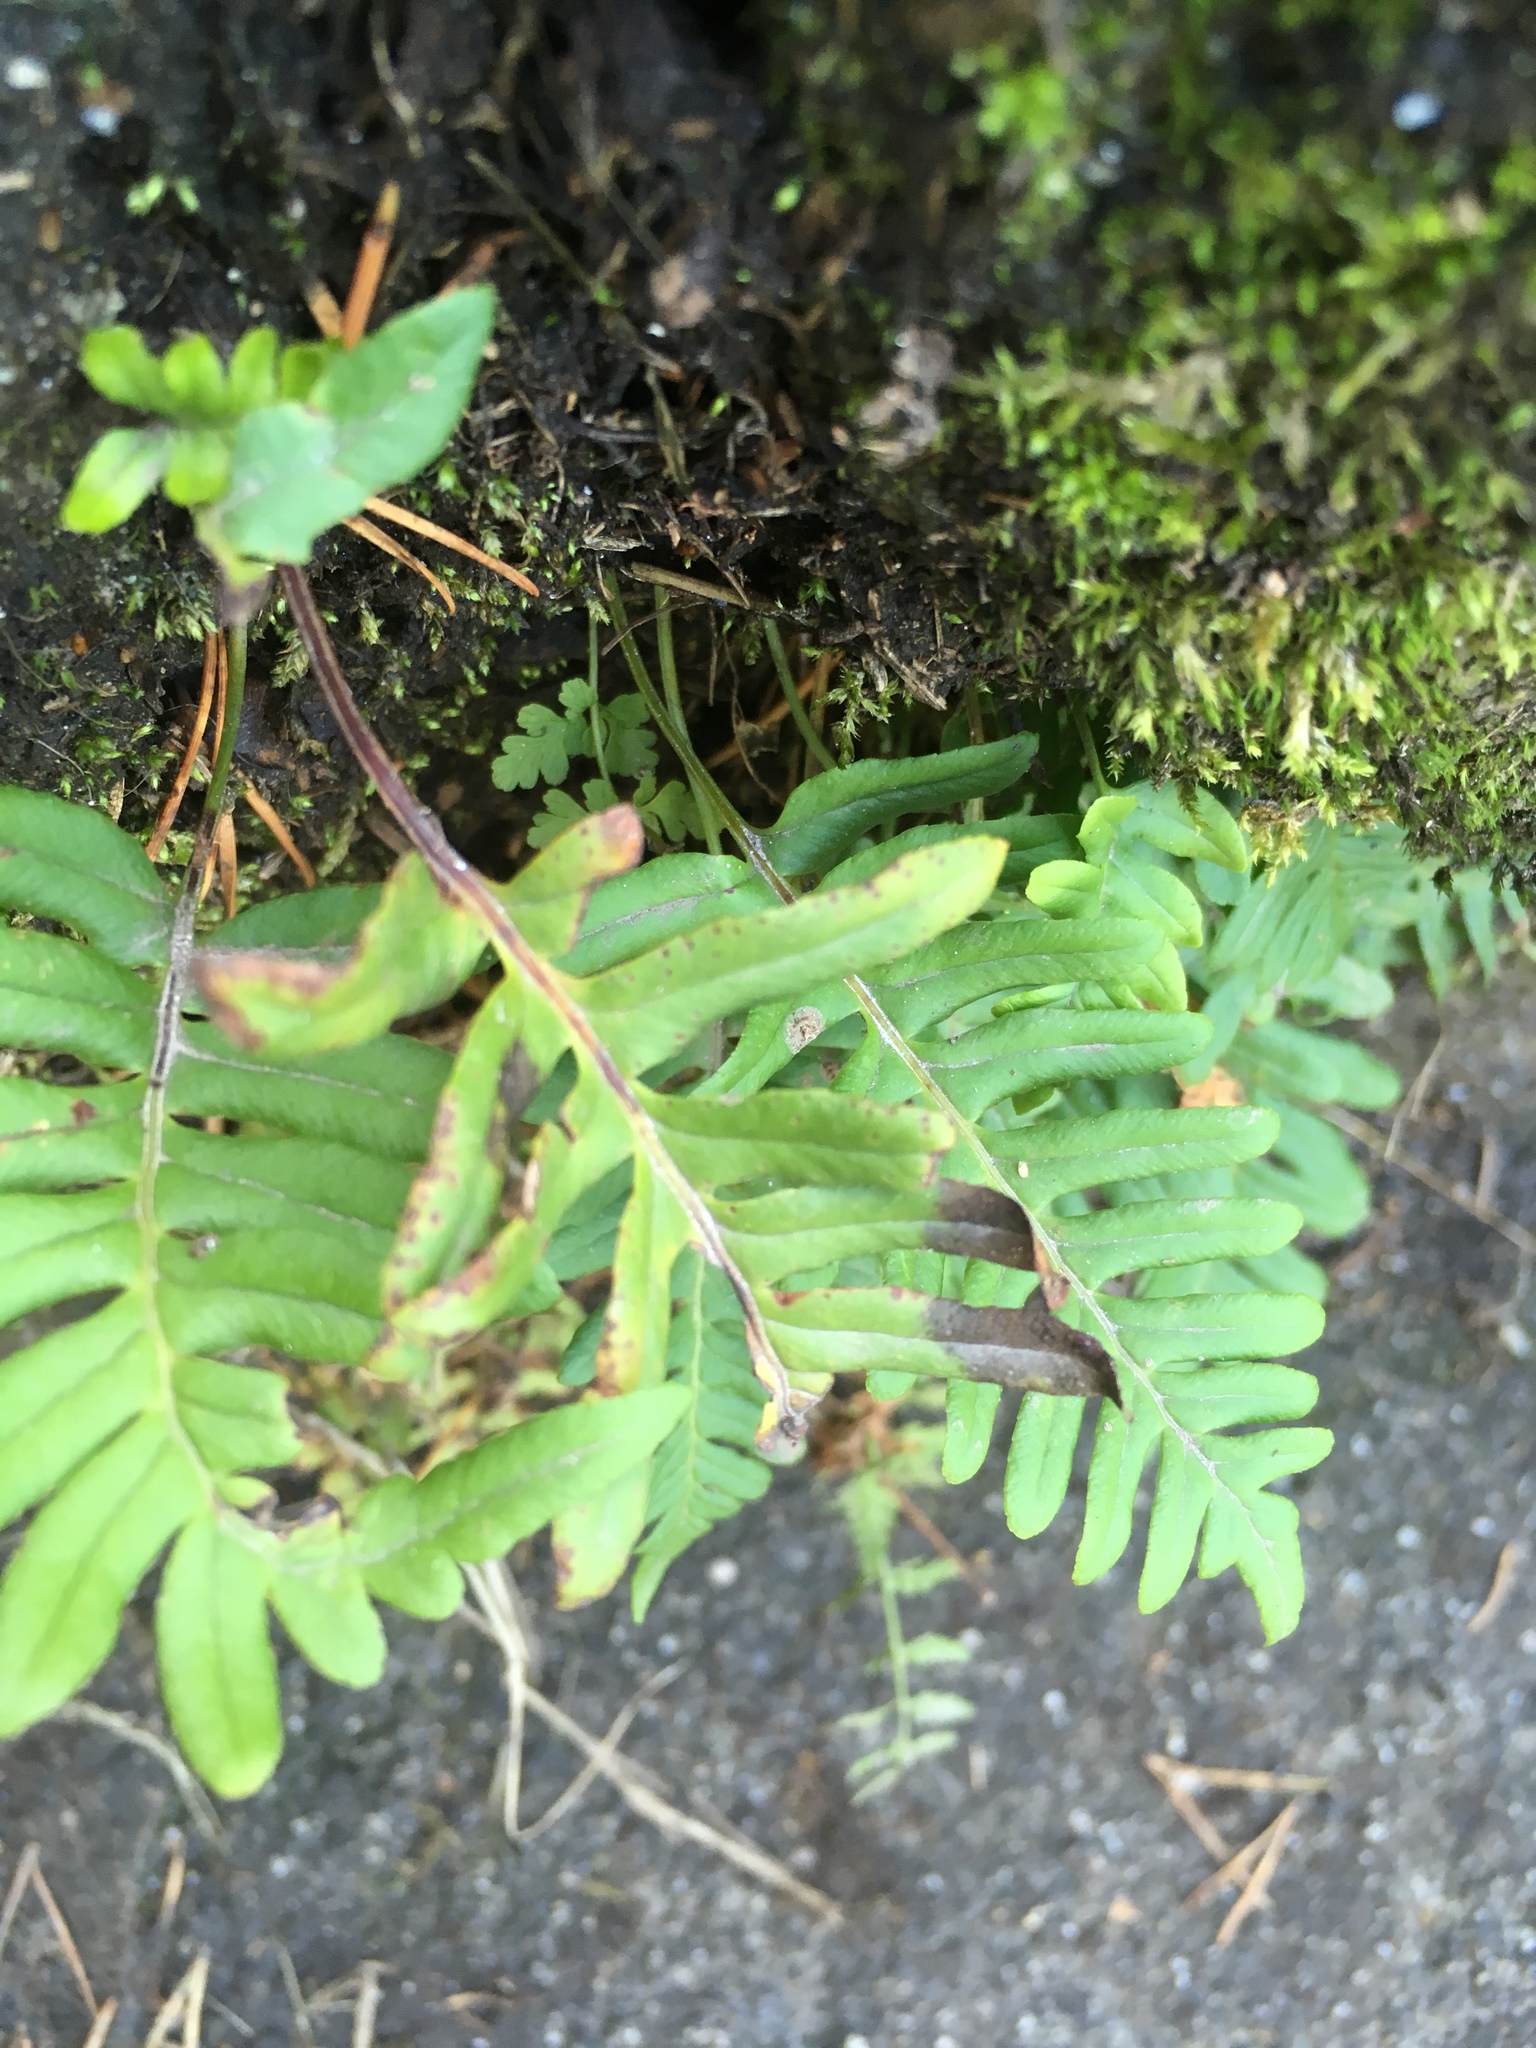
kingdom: Plantae
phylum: Tracheophyta
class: Polypodiopsida
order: Polypodiales
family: Polypodiaceae
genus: Polypodium
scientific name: Polypodium vulgare
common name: Common polypody
